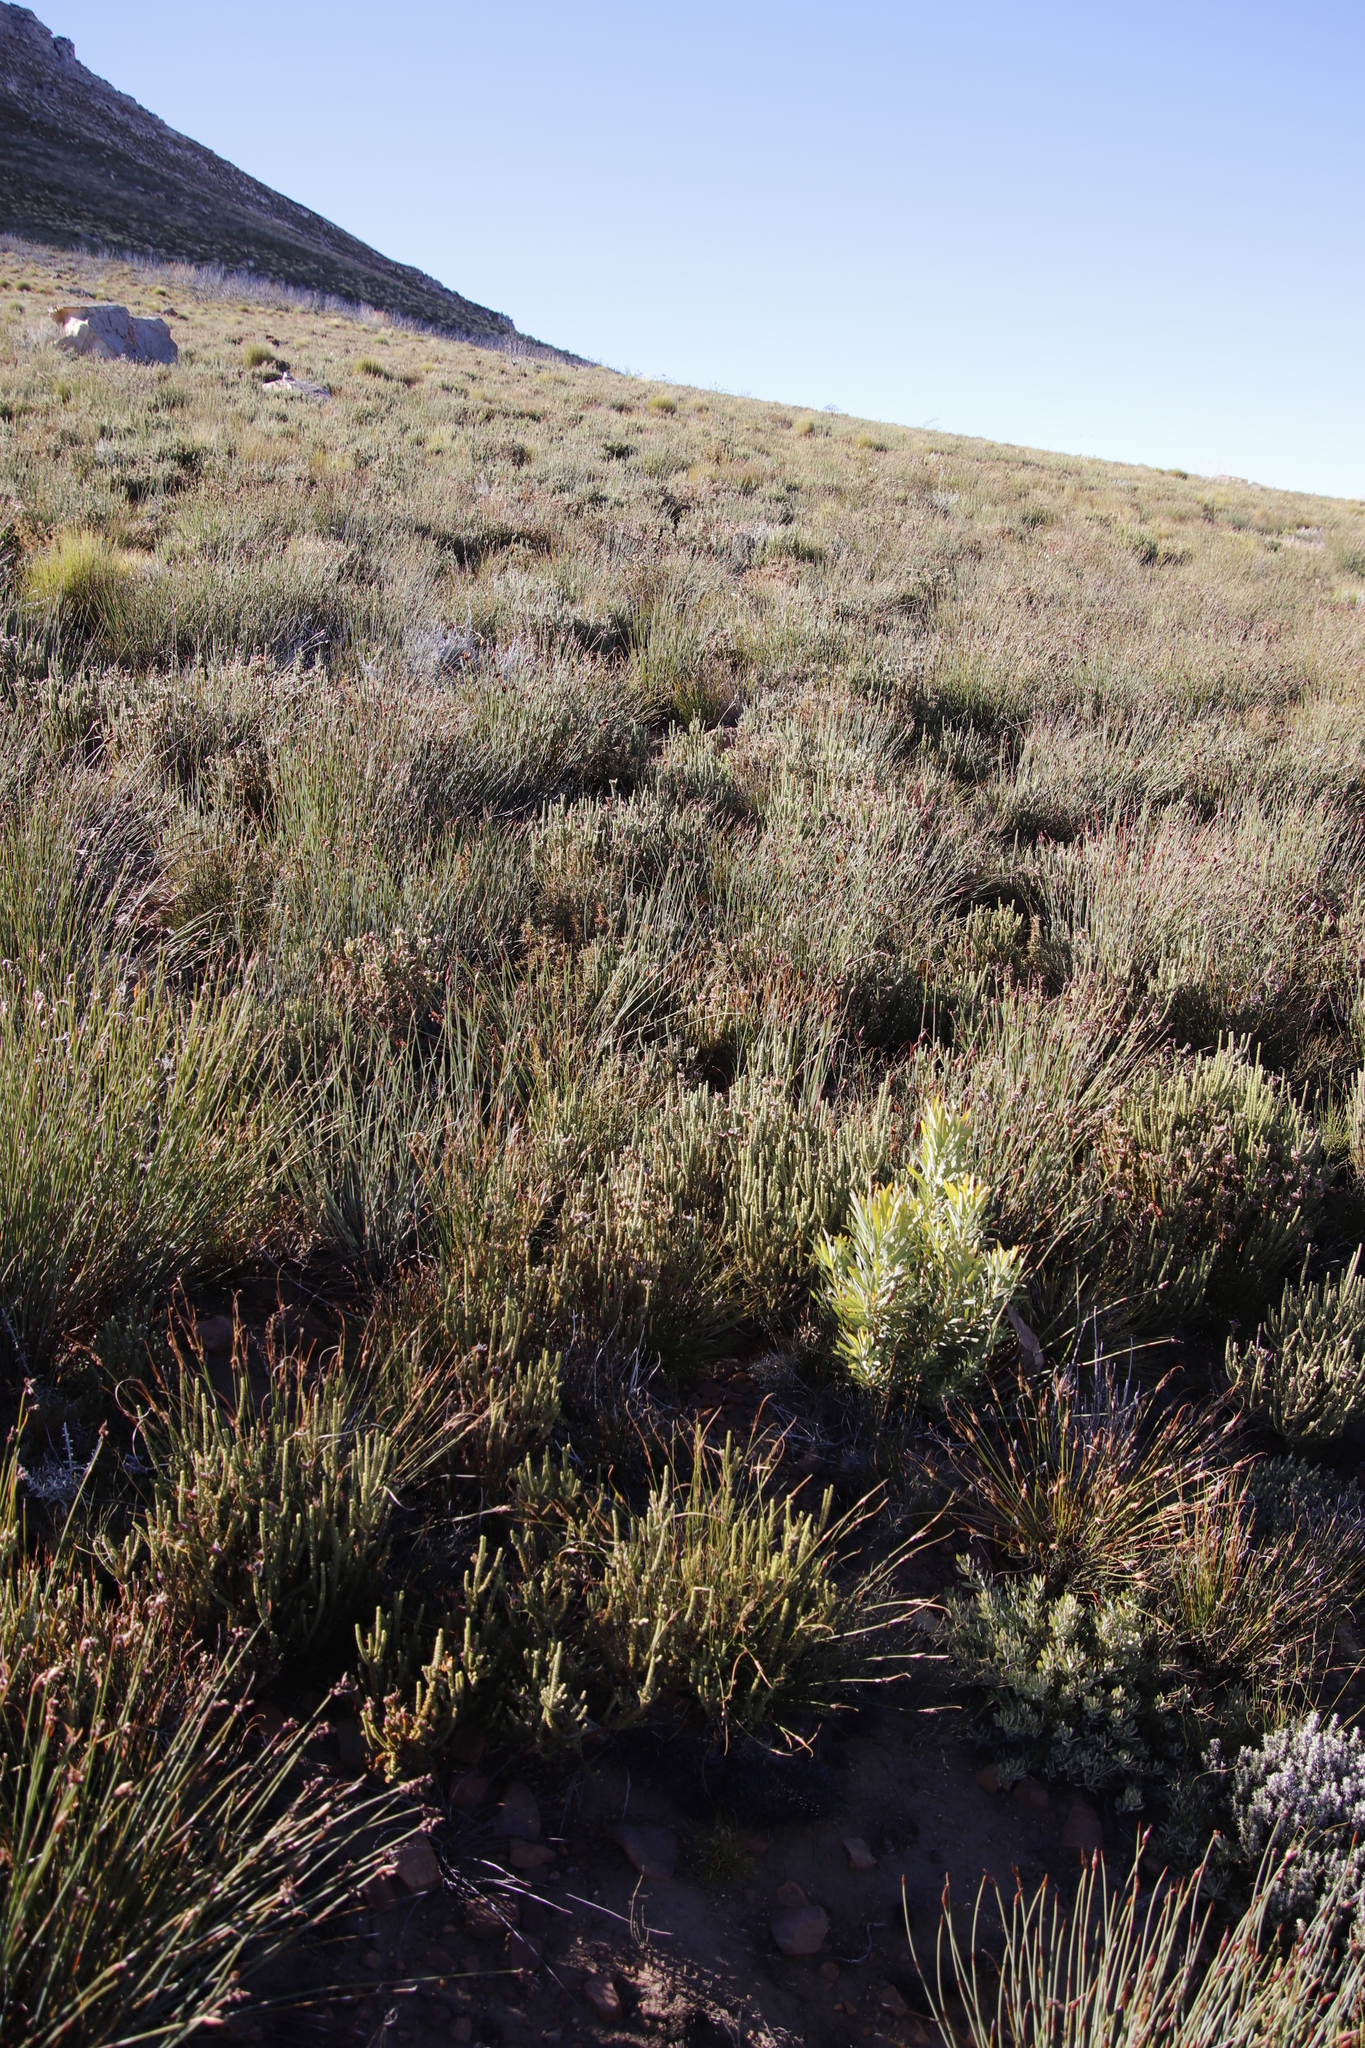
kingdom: Plantae
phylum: Tracheophyta
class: Magnoliopsida
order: Proteales
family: Proteaceae
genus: Protea
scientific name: Protea acuminata
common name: Black-rim sugarbush
